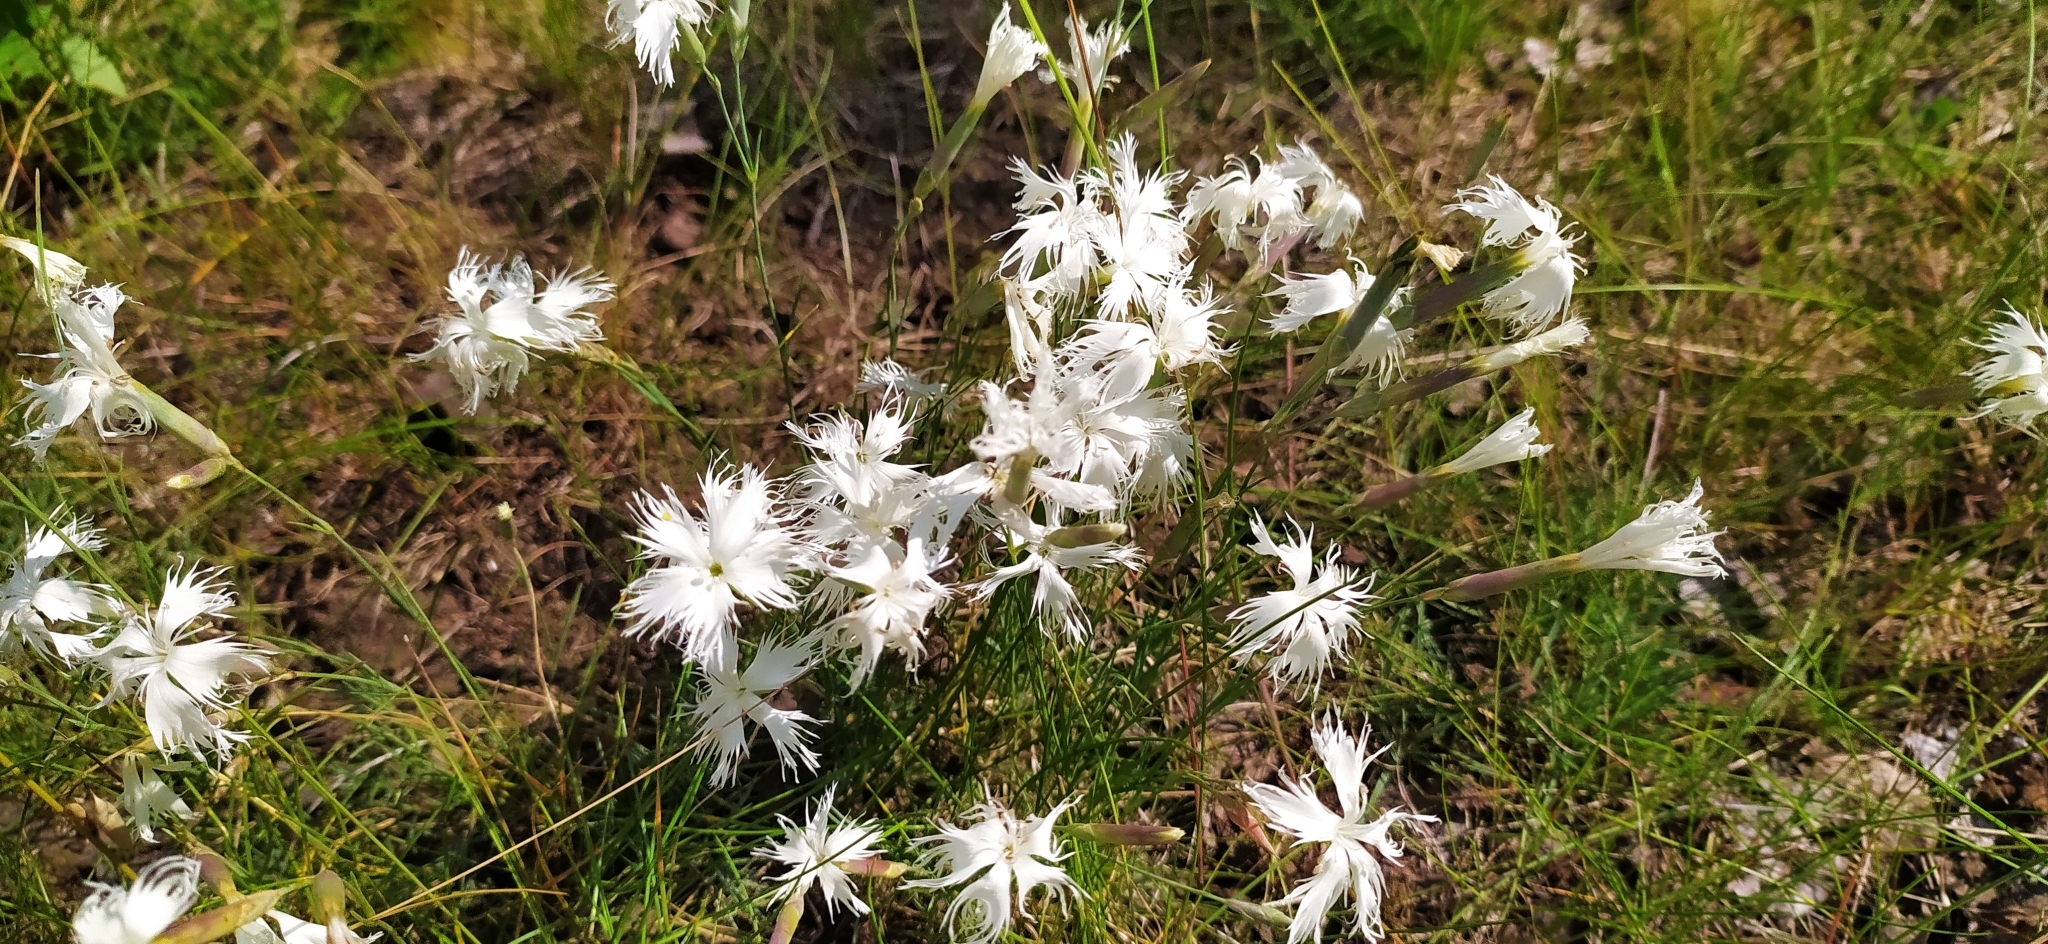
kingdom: Plantae
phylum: Tracheophyta
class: Magnoliopsida
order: Caryophyllales
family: Caryophyllaceae
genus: Dianthus
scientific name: Dianthus acicularis
